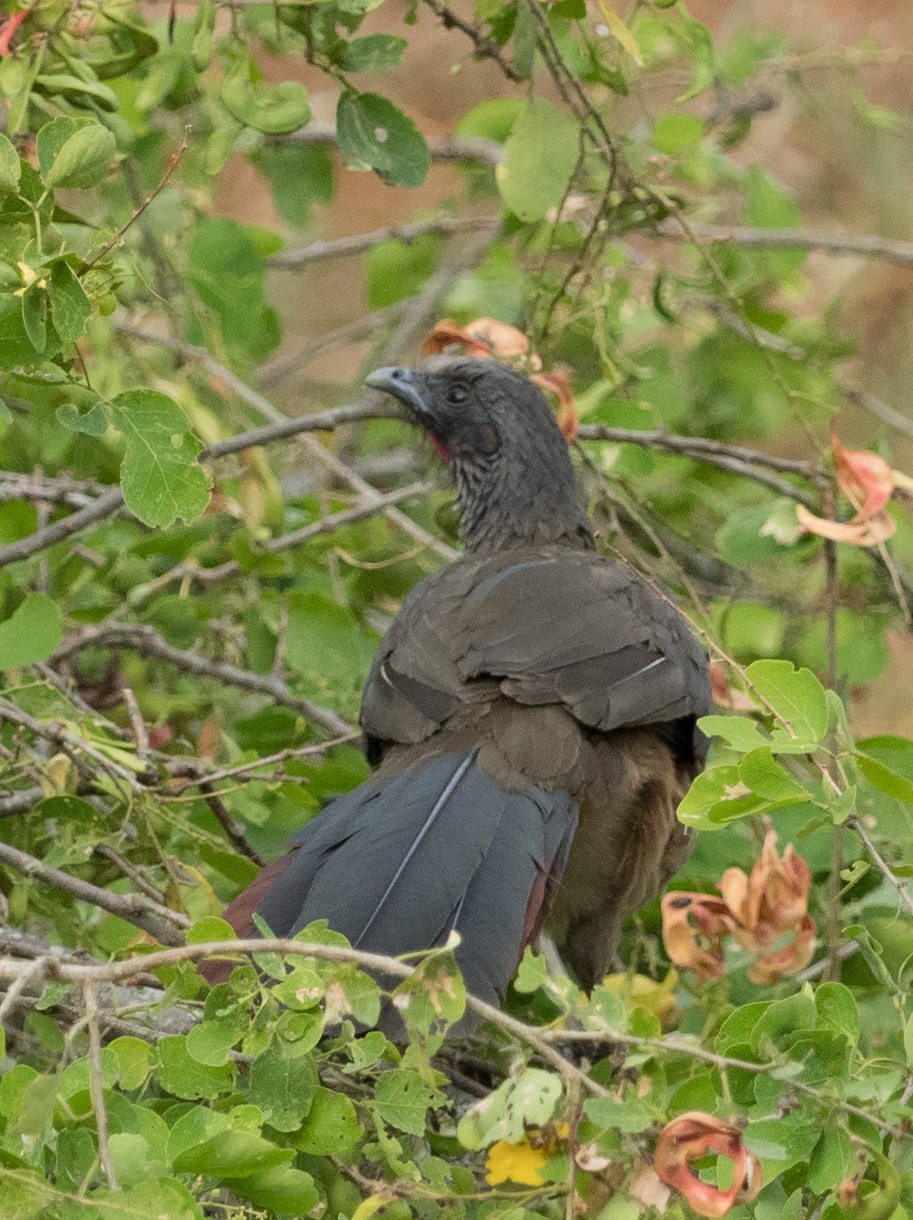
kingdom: Animalia
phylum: Chordata
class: Aves
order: Galliformes
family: Cracidae
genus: Ortalis
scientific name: Ortalis columbiana
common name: Colombian chachalaca
